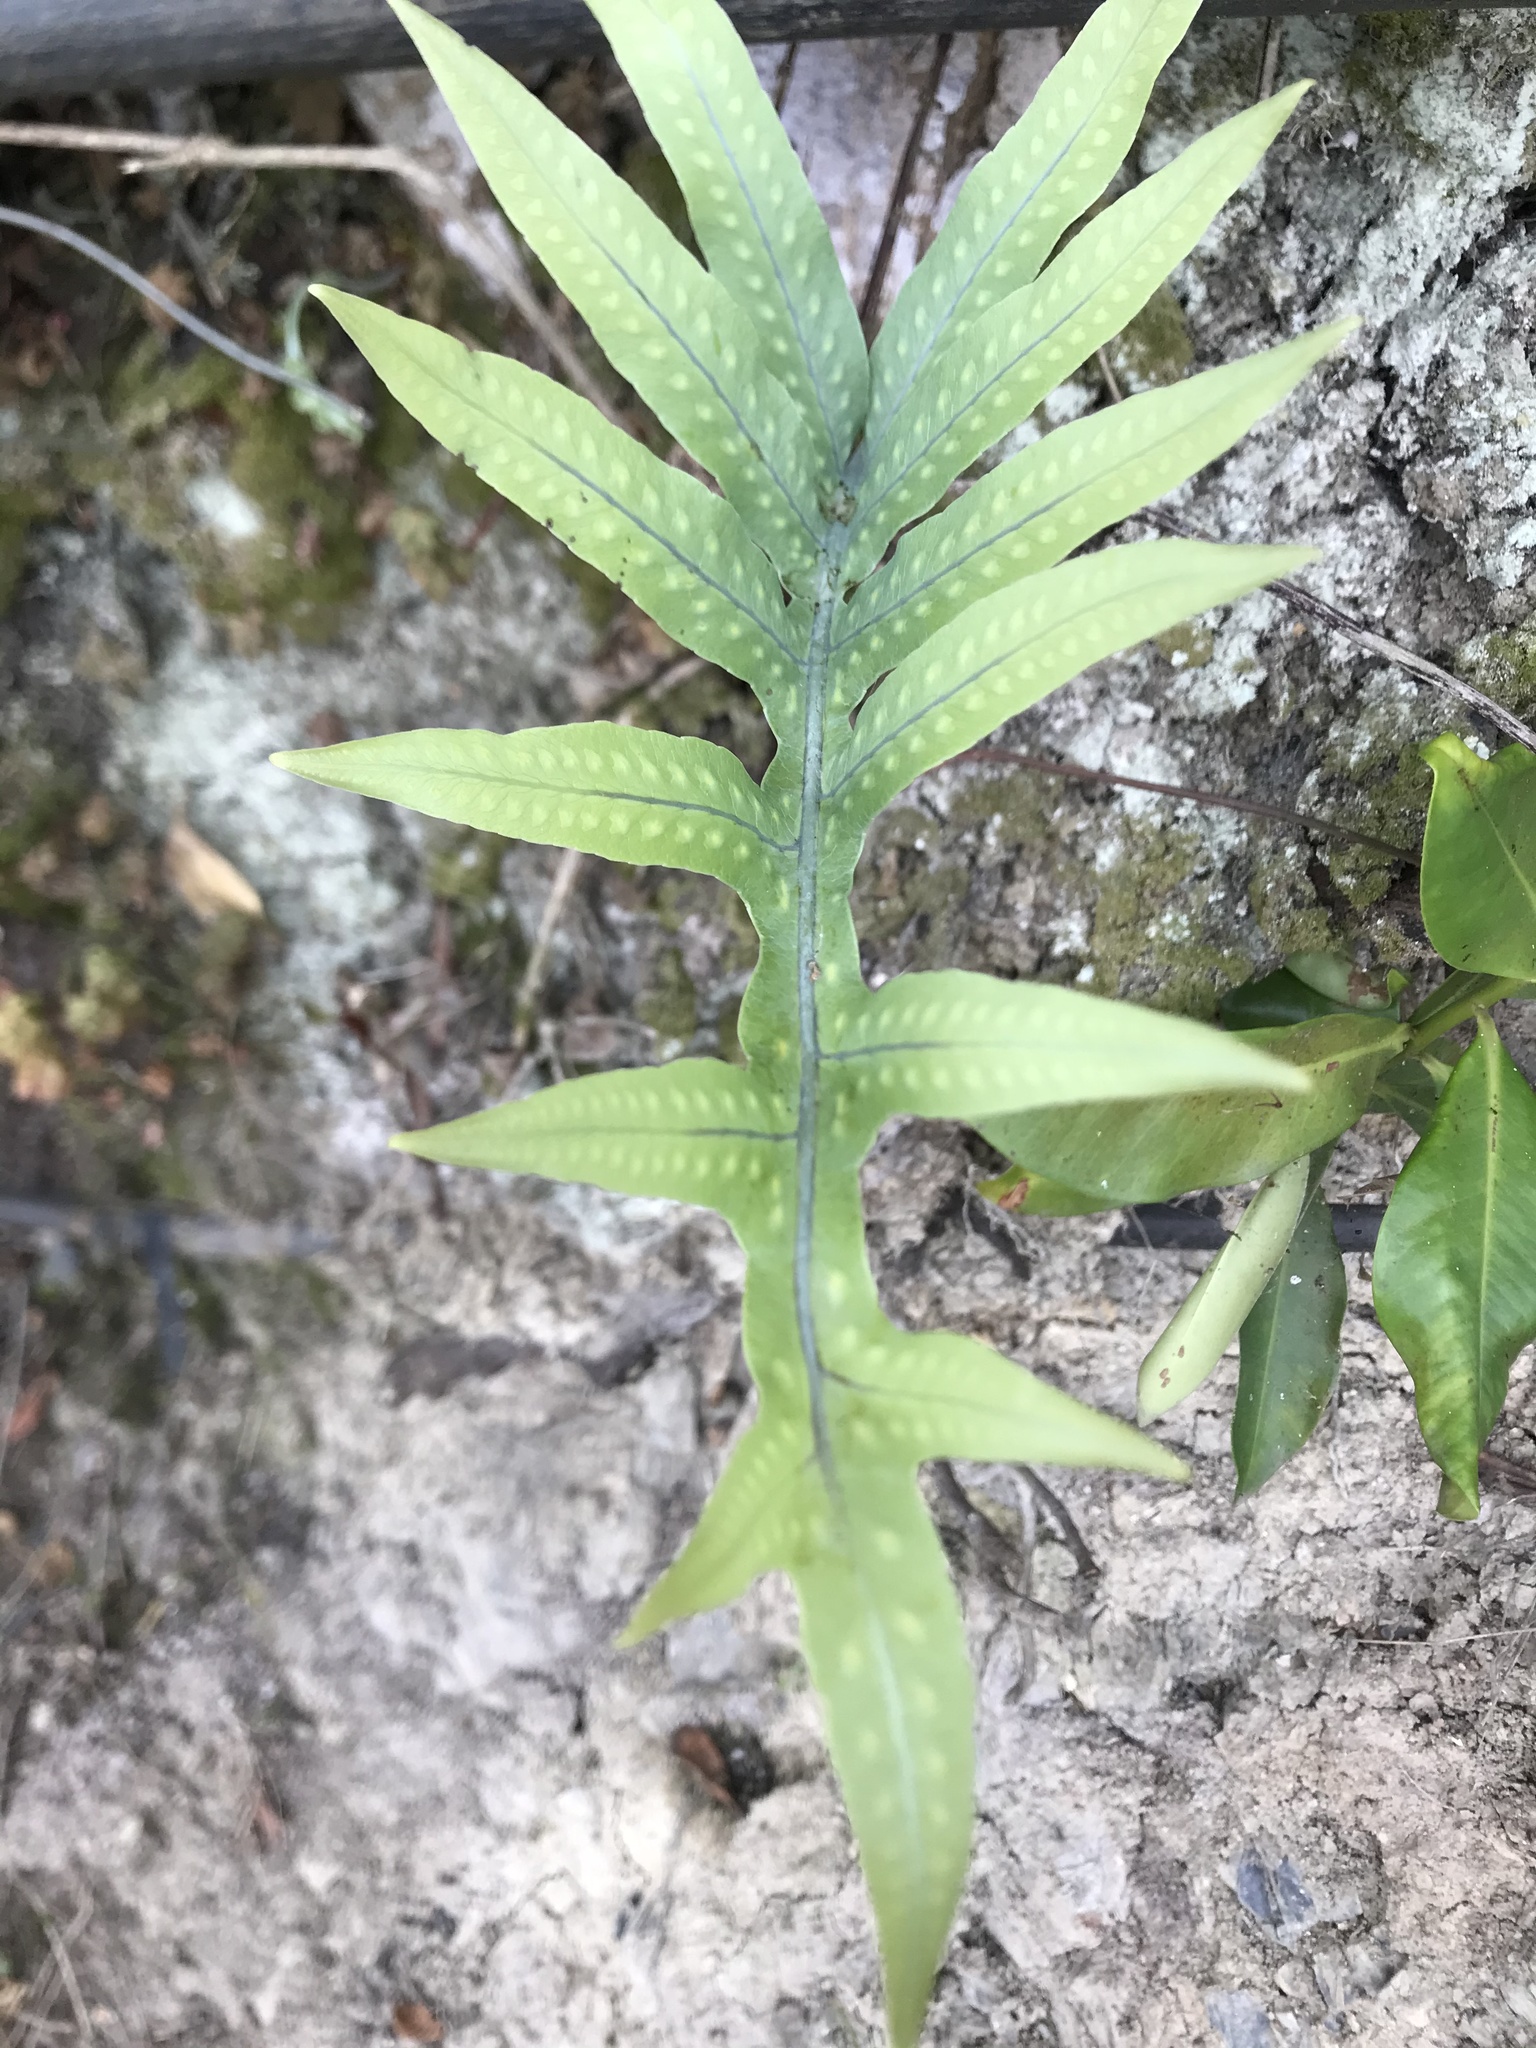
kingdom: Plantae
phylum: Tracheophyta
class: Polypodiopsida
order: Polypodiales
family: Polypodiaceae
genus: Phlebodium
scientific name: Phlebodium pseudoaureum
